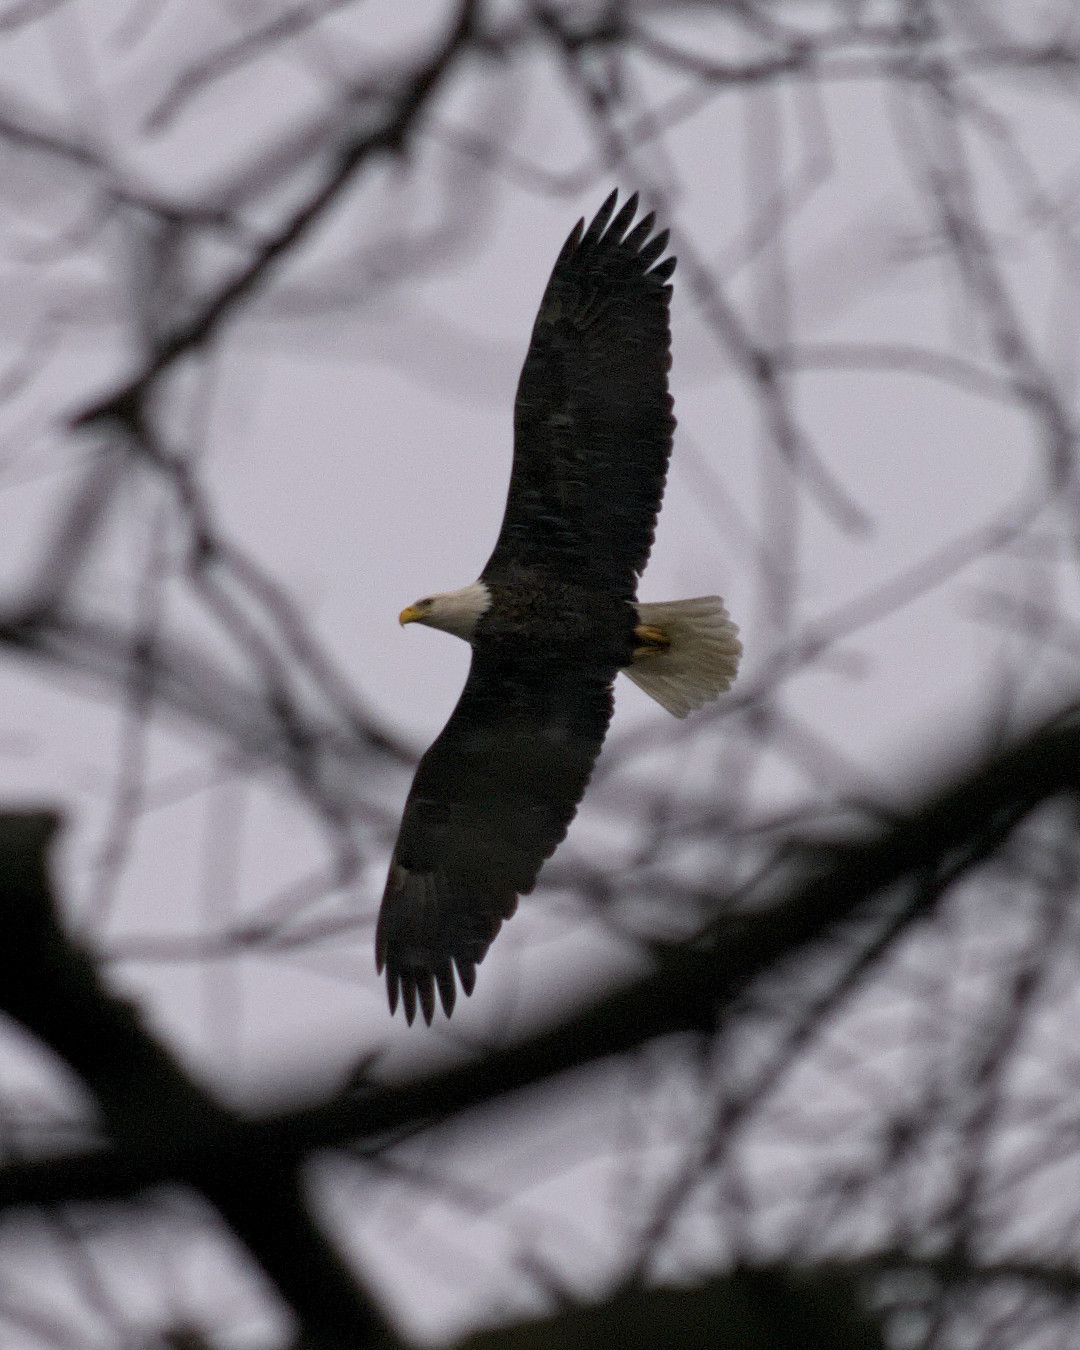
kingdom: Animalia
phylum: Chordata
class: Aves
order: Accipitriformes
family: Accipitridae
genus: Haliaeetus
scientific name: Haliaeetus leucocephalus
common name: Bald eagle
